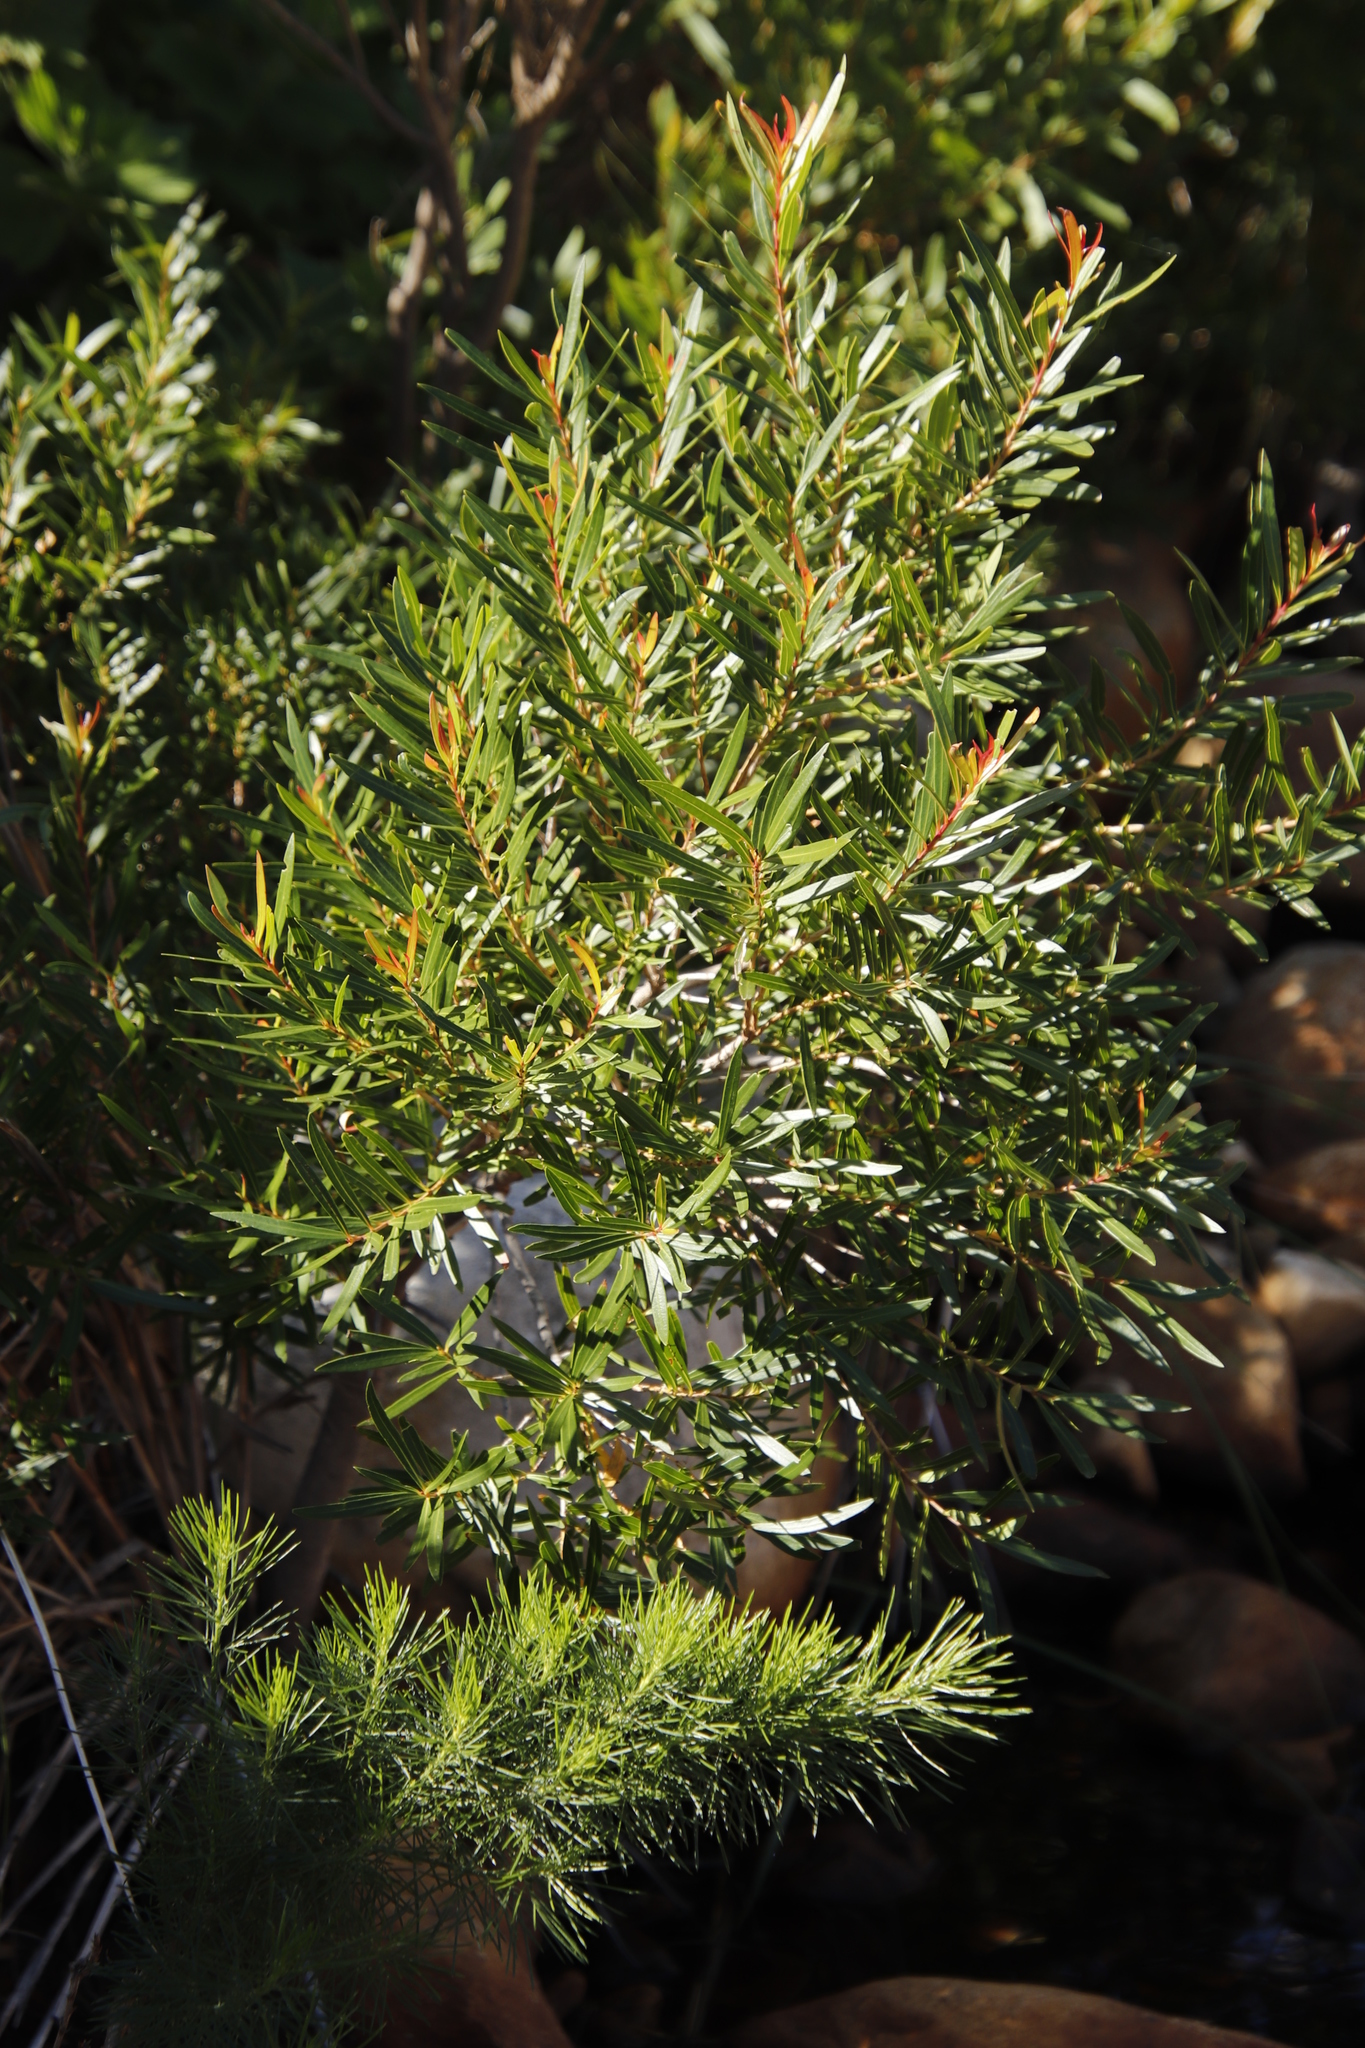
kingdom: Plantae
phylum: Tracheophyta
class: Magnoliopsida
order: Myrtales
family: Myrtaceae
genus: Callistemon
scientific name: Callistemon lanceolatus
